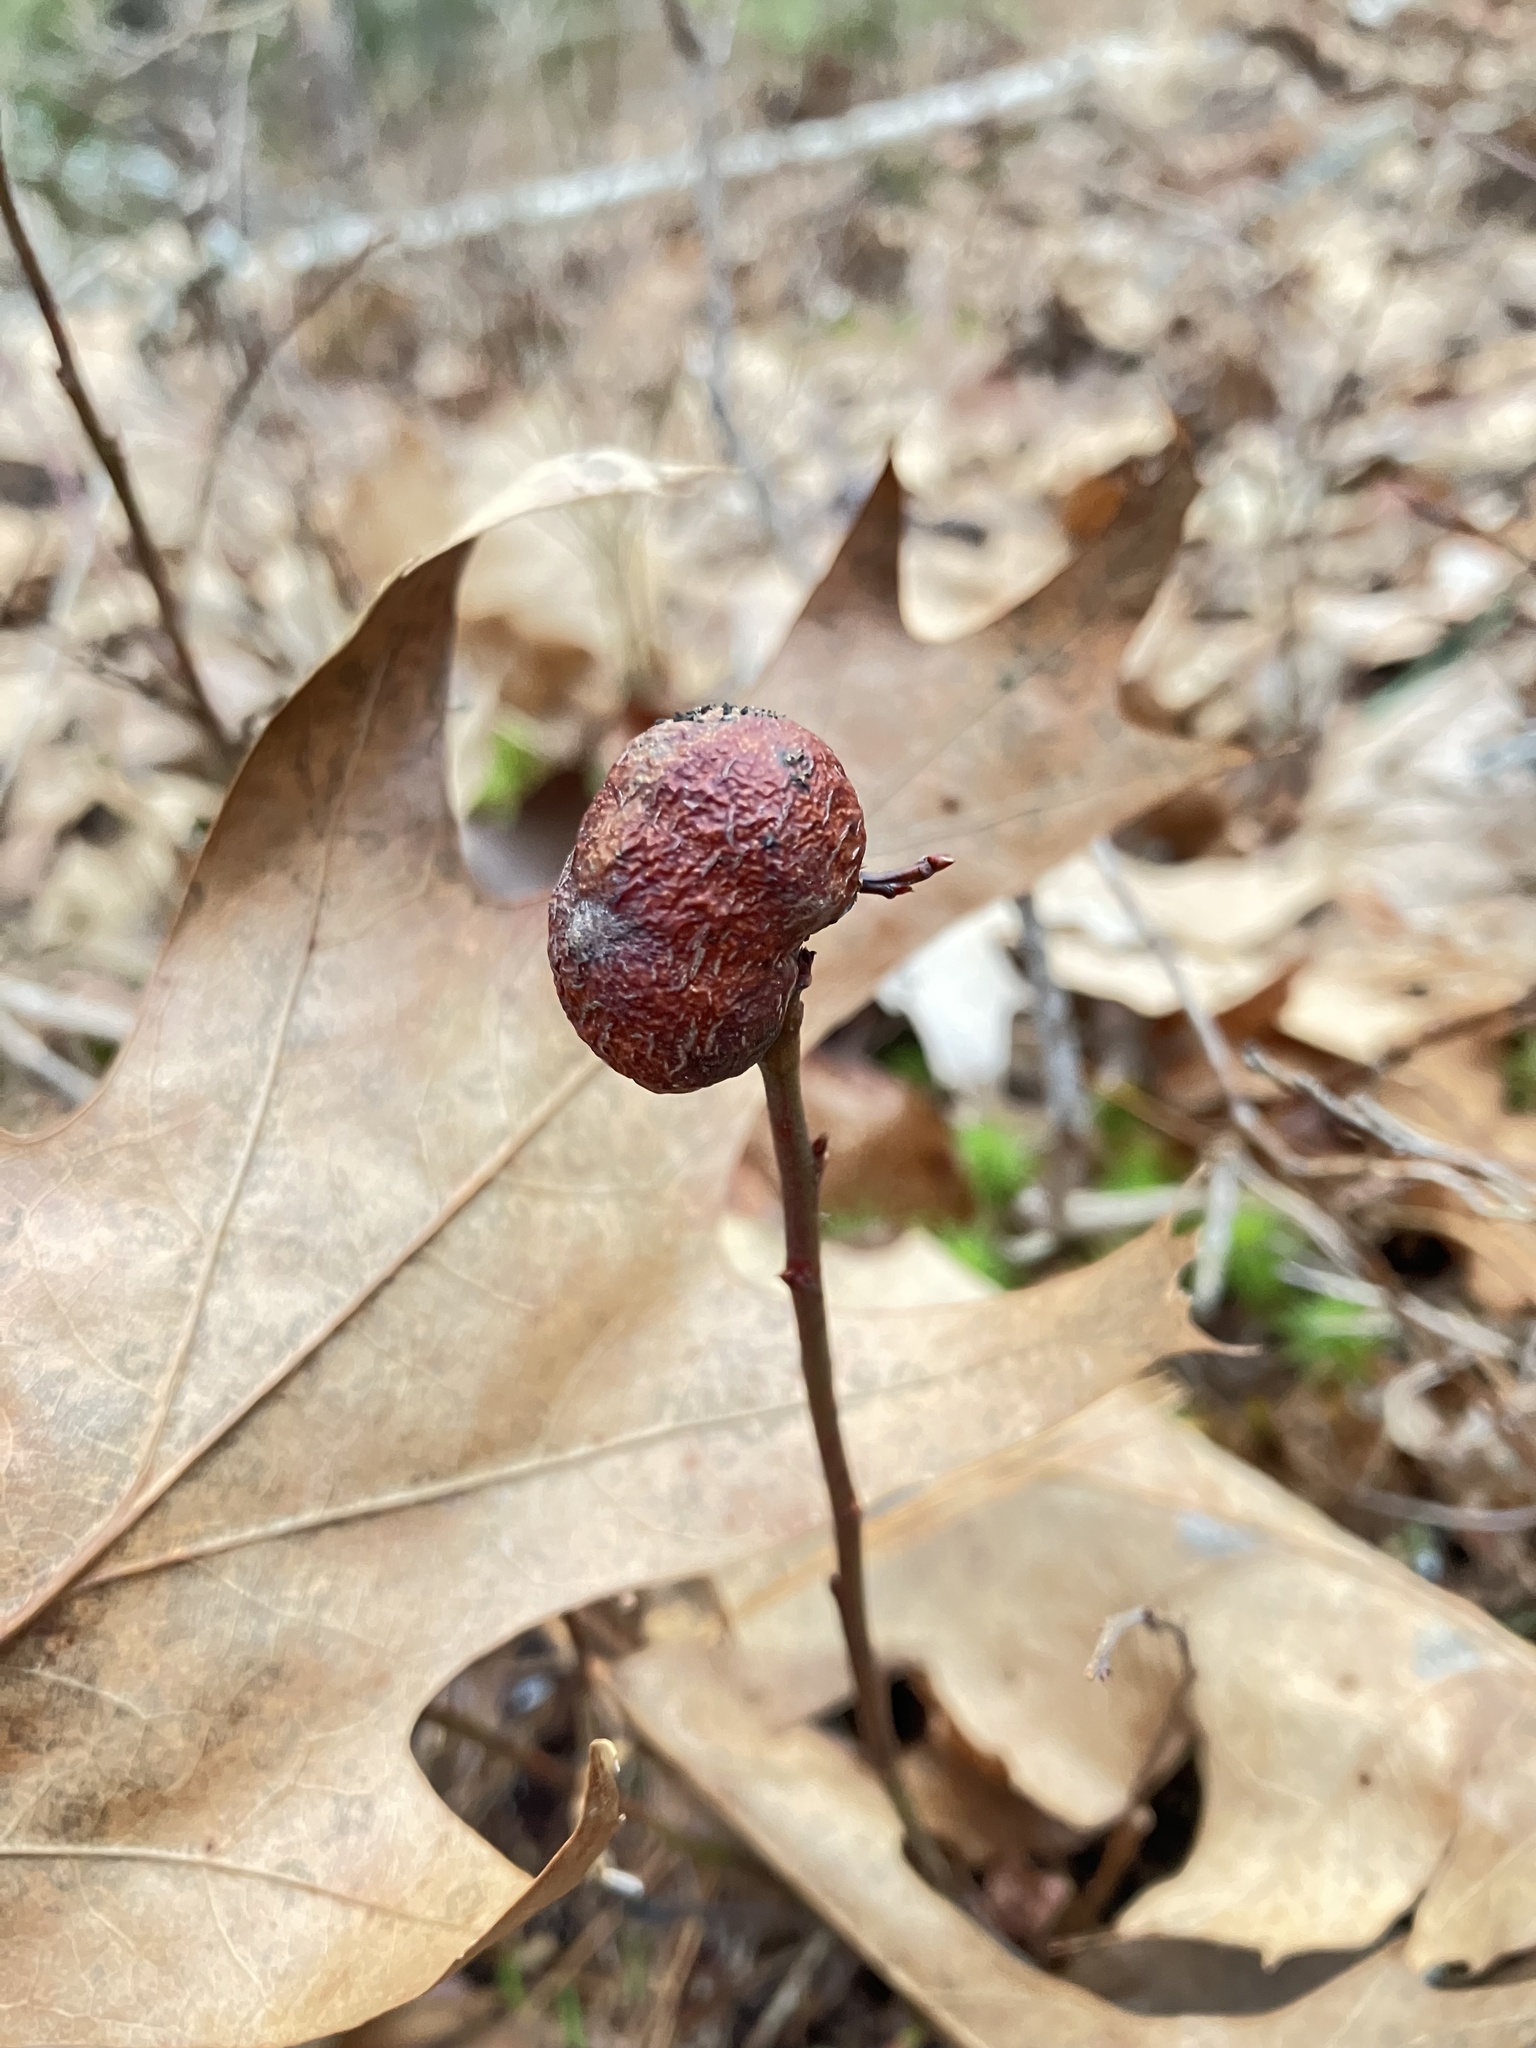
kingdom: Animalia
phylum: Arthropoda
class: Insecta
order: Hymenoptera
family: Pteromalidae
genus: Hemadas
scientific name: Hemadas nubilipennis
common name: Blueberry stem gall wasp
